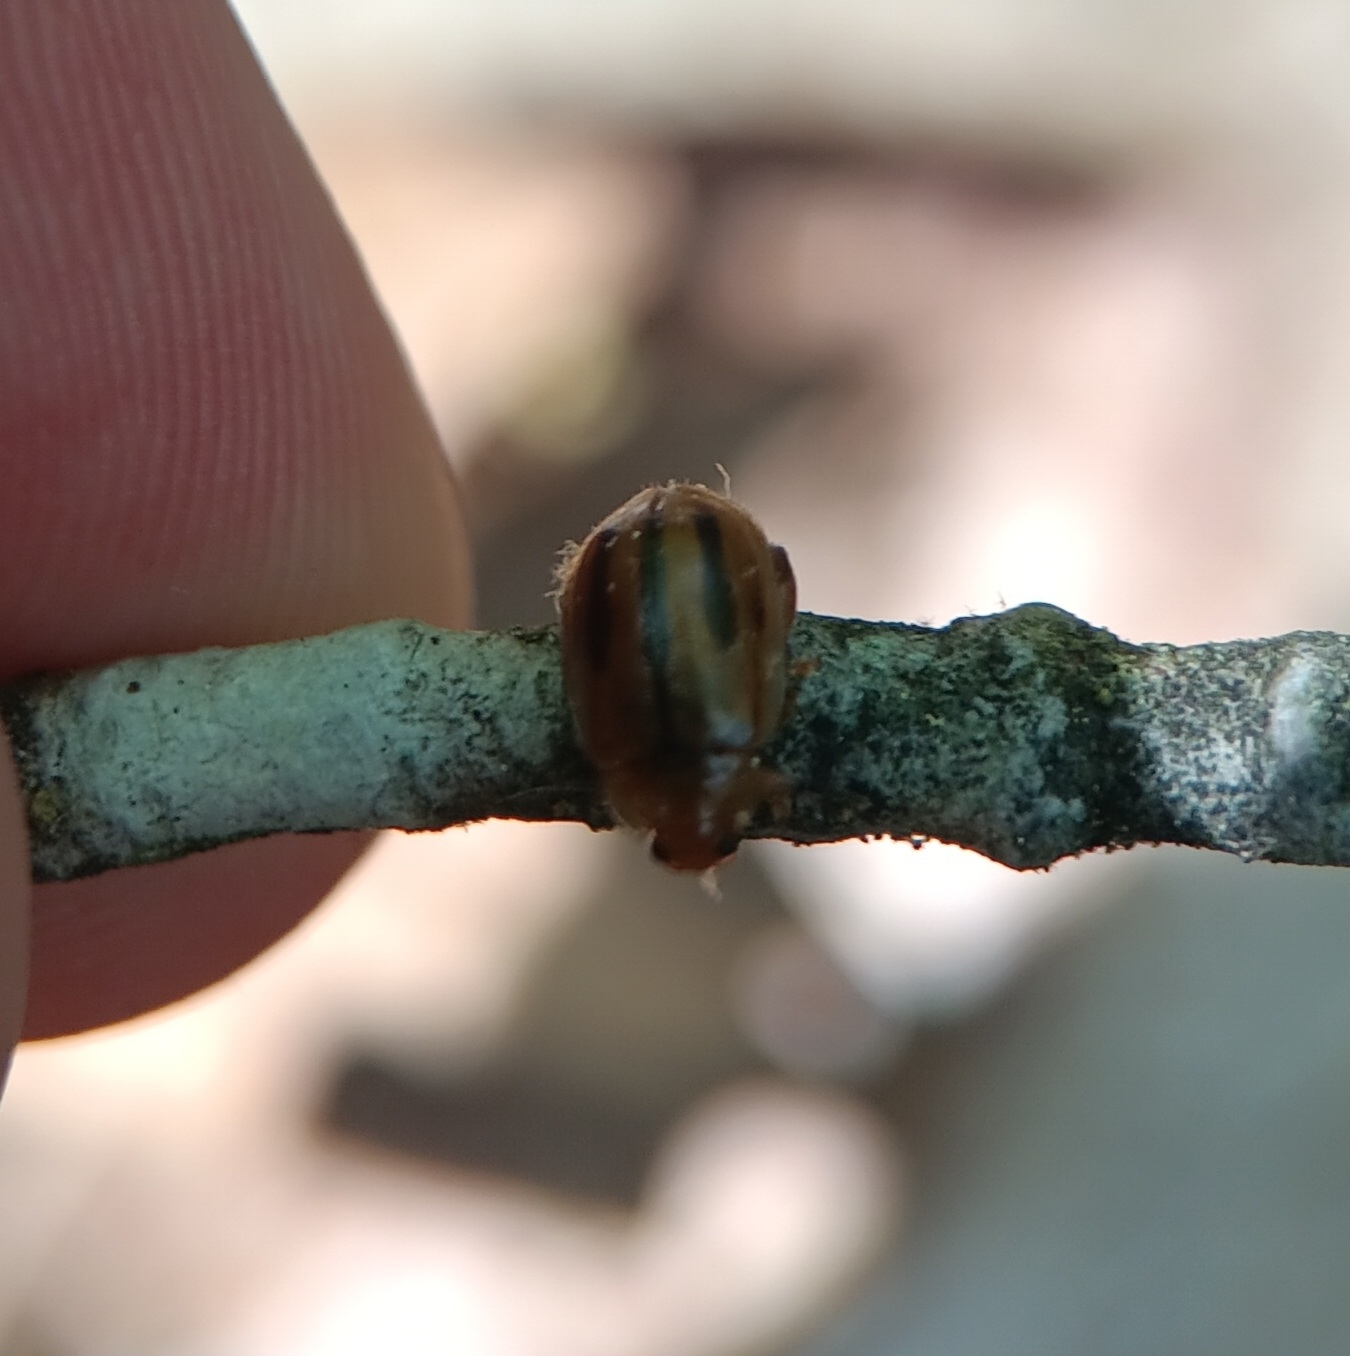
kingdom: Animalia
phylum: Arthropoda
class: Insecta
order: Coleoptera
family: Chrysomelidae
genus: Capraita
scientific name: Capraita subvittata
